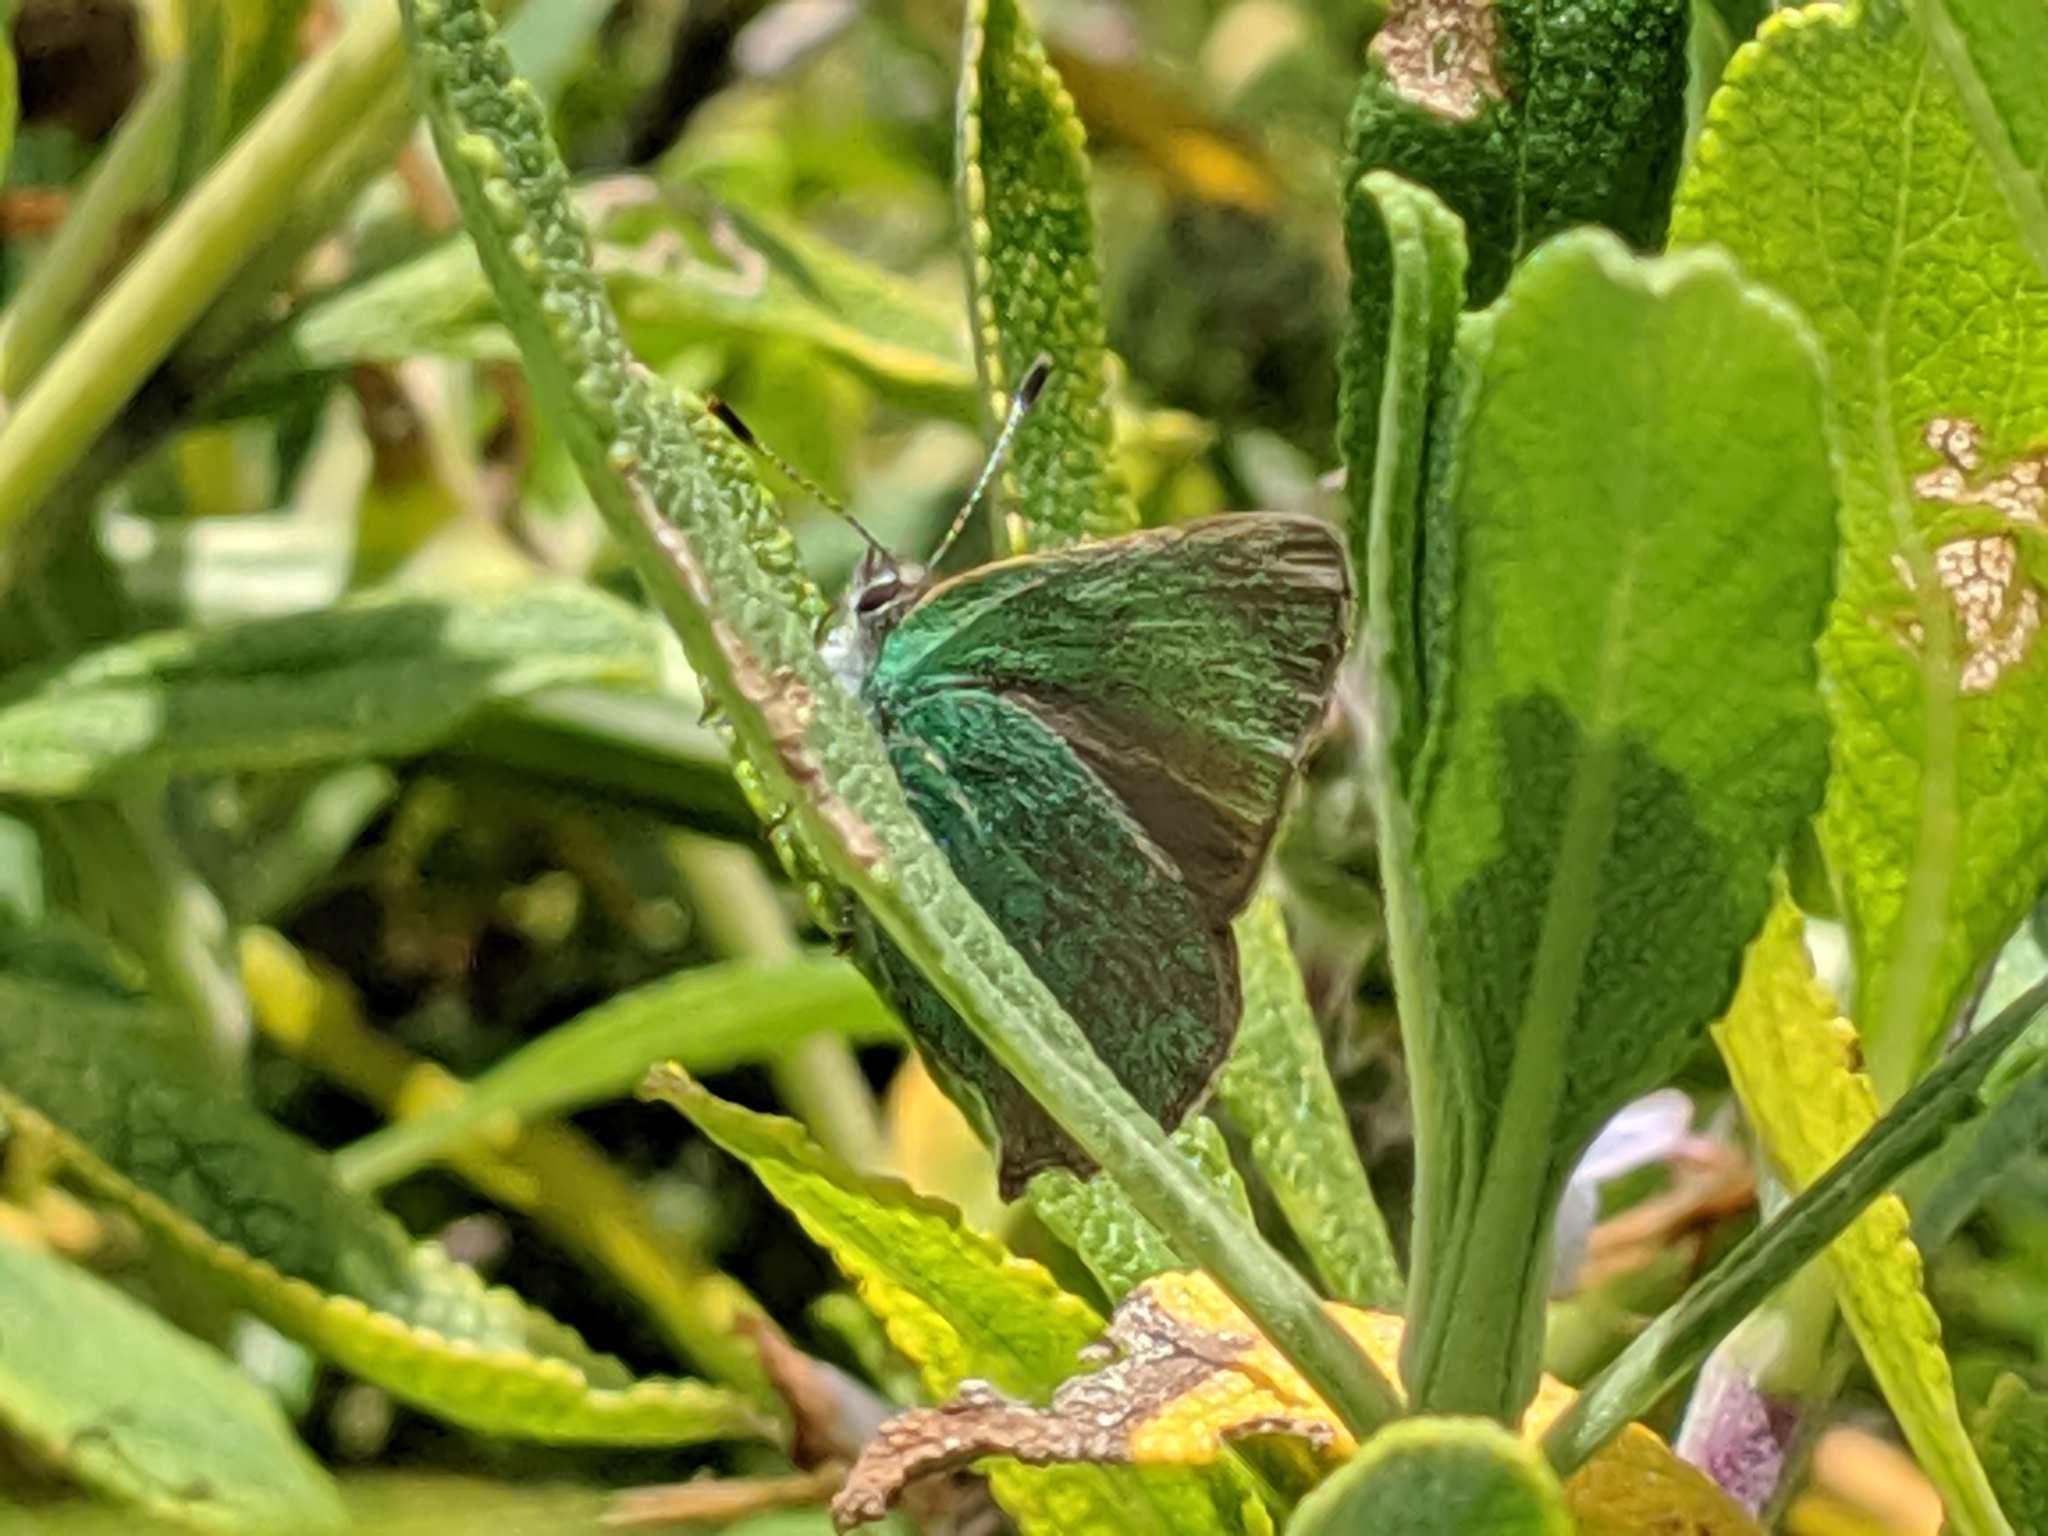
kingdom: Animalia
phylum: Arthropoda
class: Insecta
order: Lepidoptera
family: Lycaenidae
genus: Callophrys
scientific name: Callophrys dumetorum
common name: Bramble hairstreak
